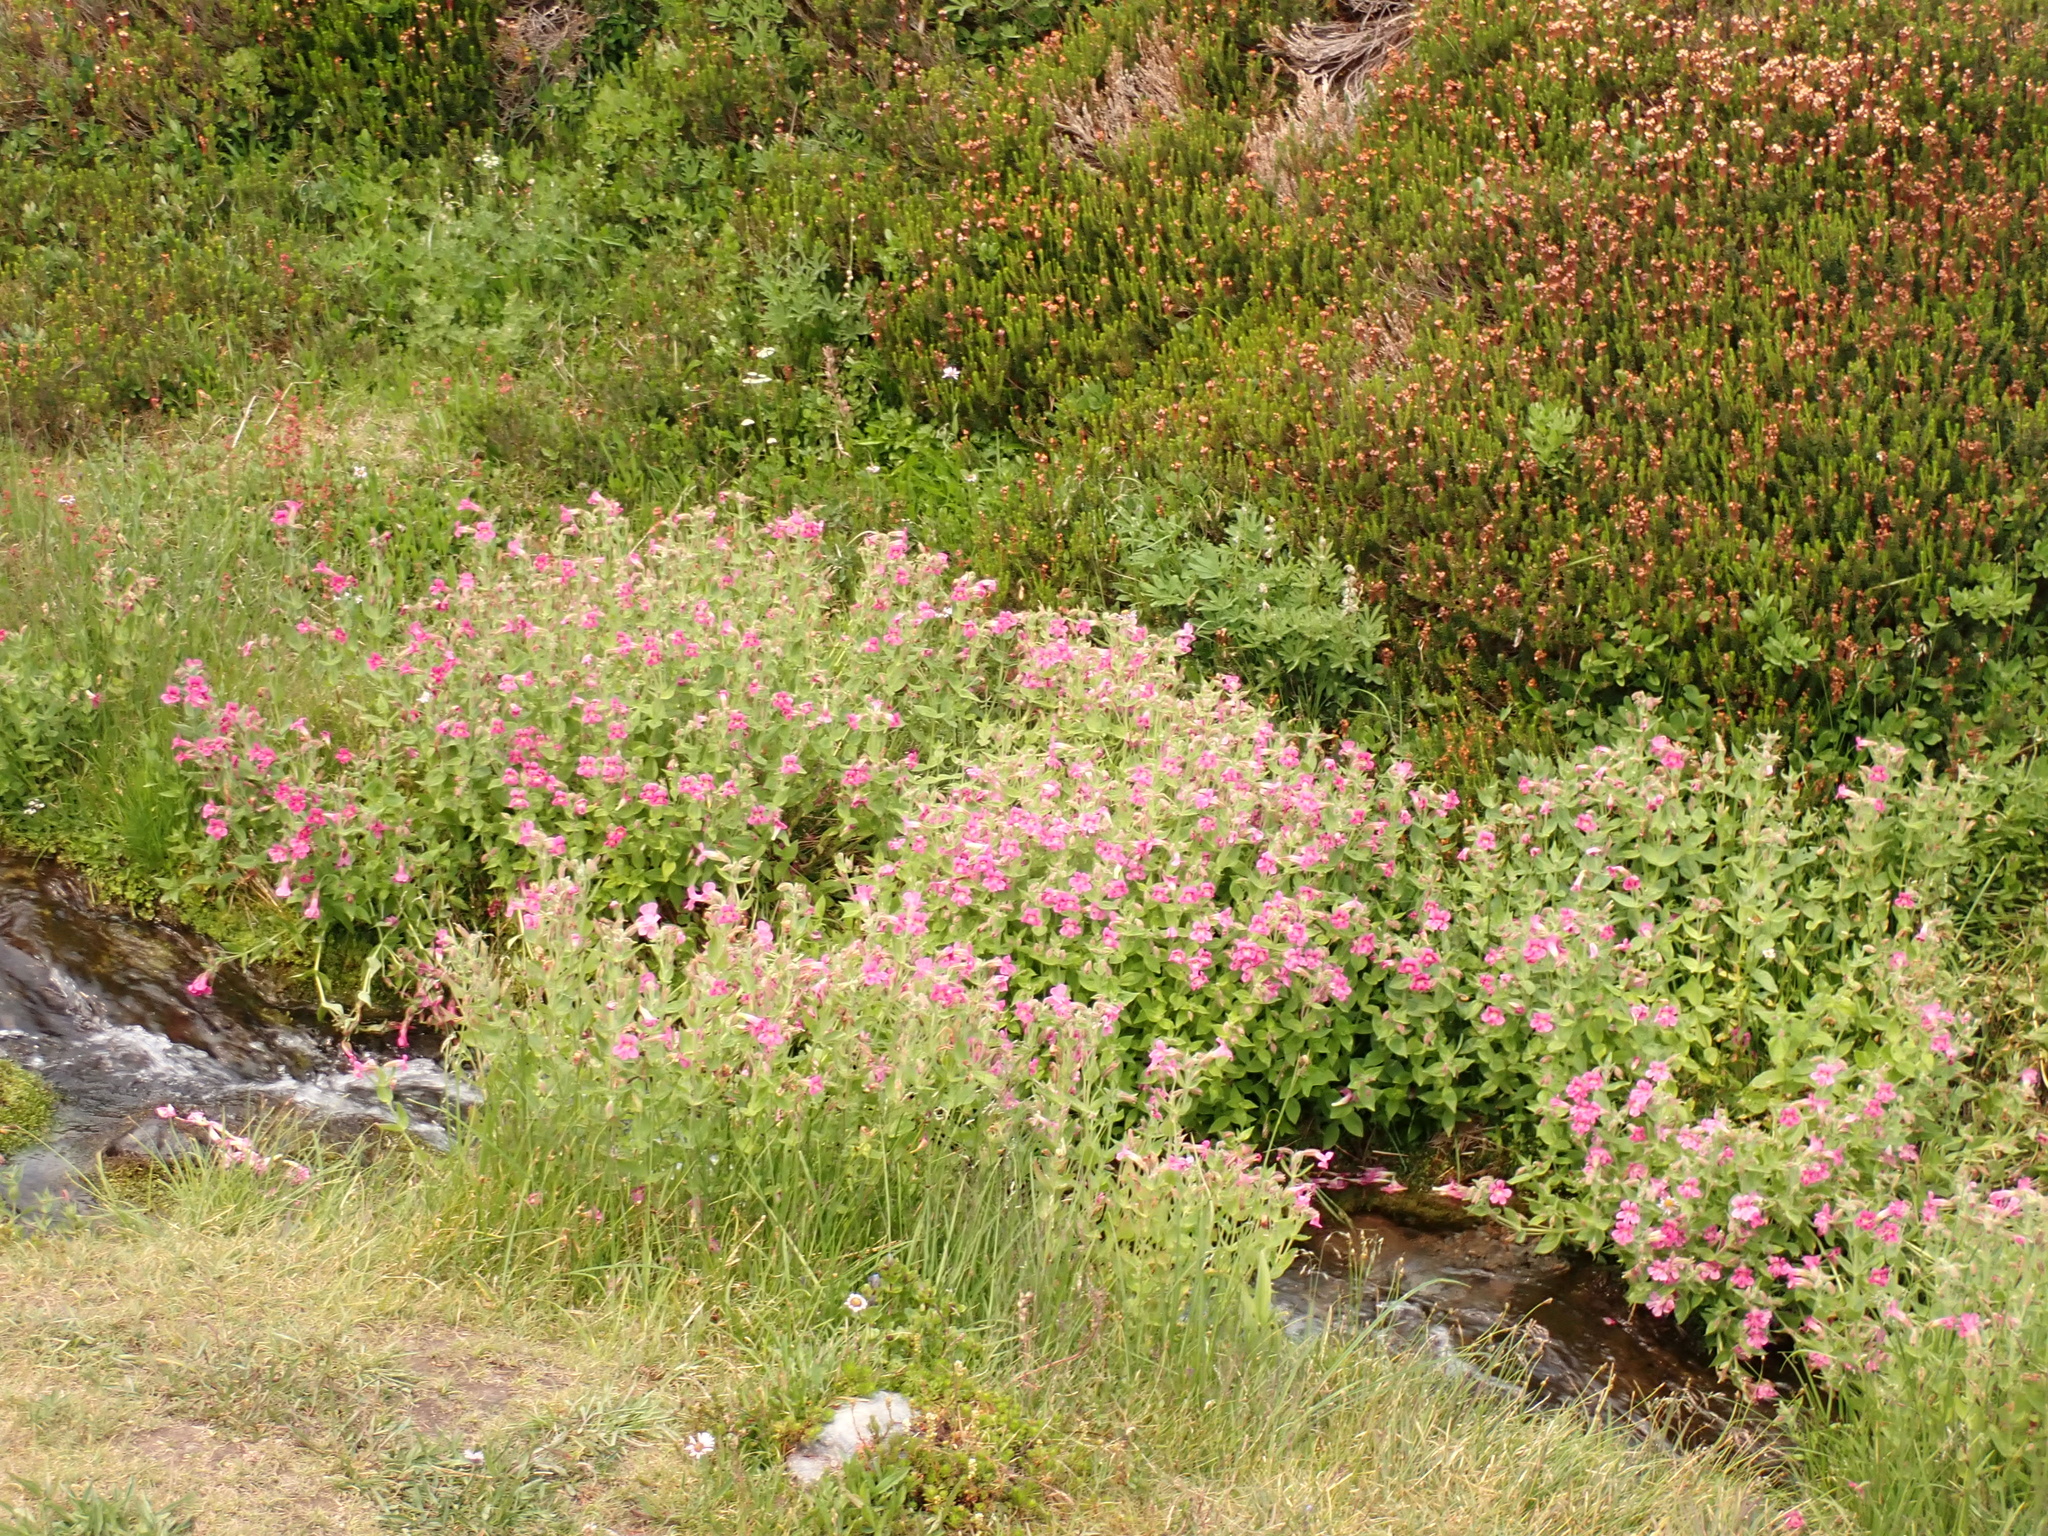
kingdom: Plantae
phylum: Tracheophyta
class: Magnoliopsida
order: Lamiales
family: Phrymaceae
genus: Erythranthe
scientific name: Erythranthe lewisii
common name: Lewis's monkey-flower
